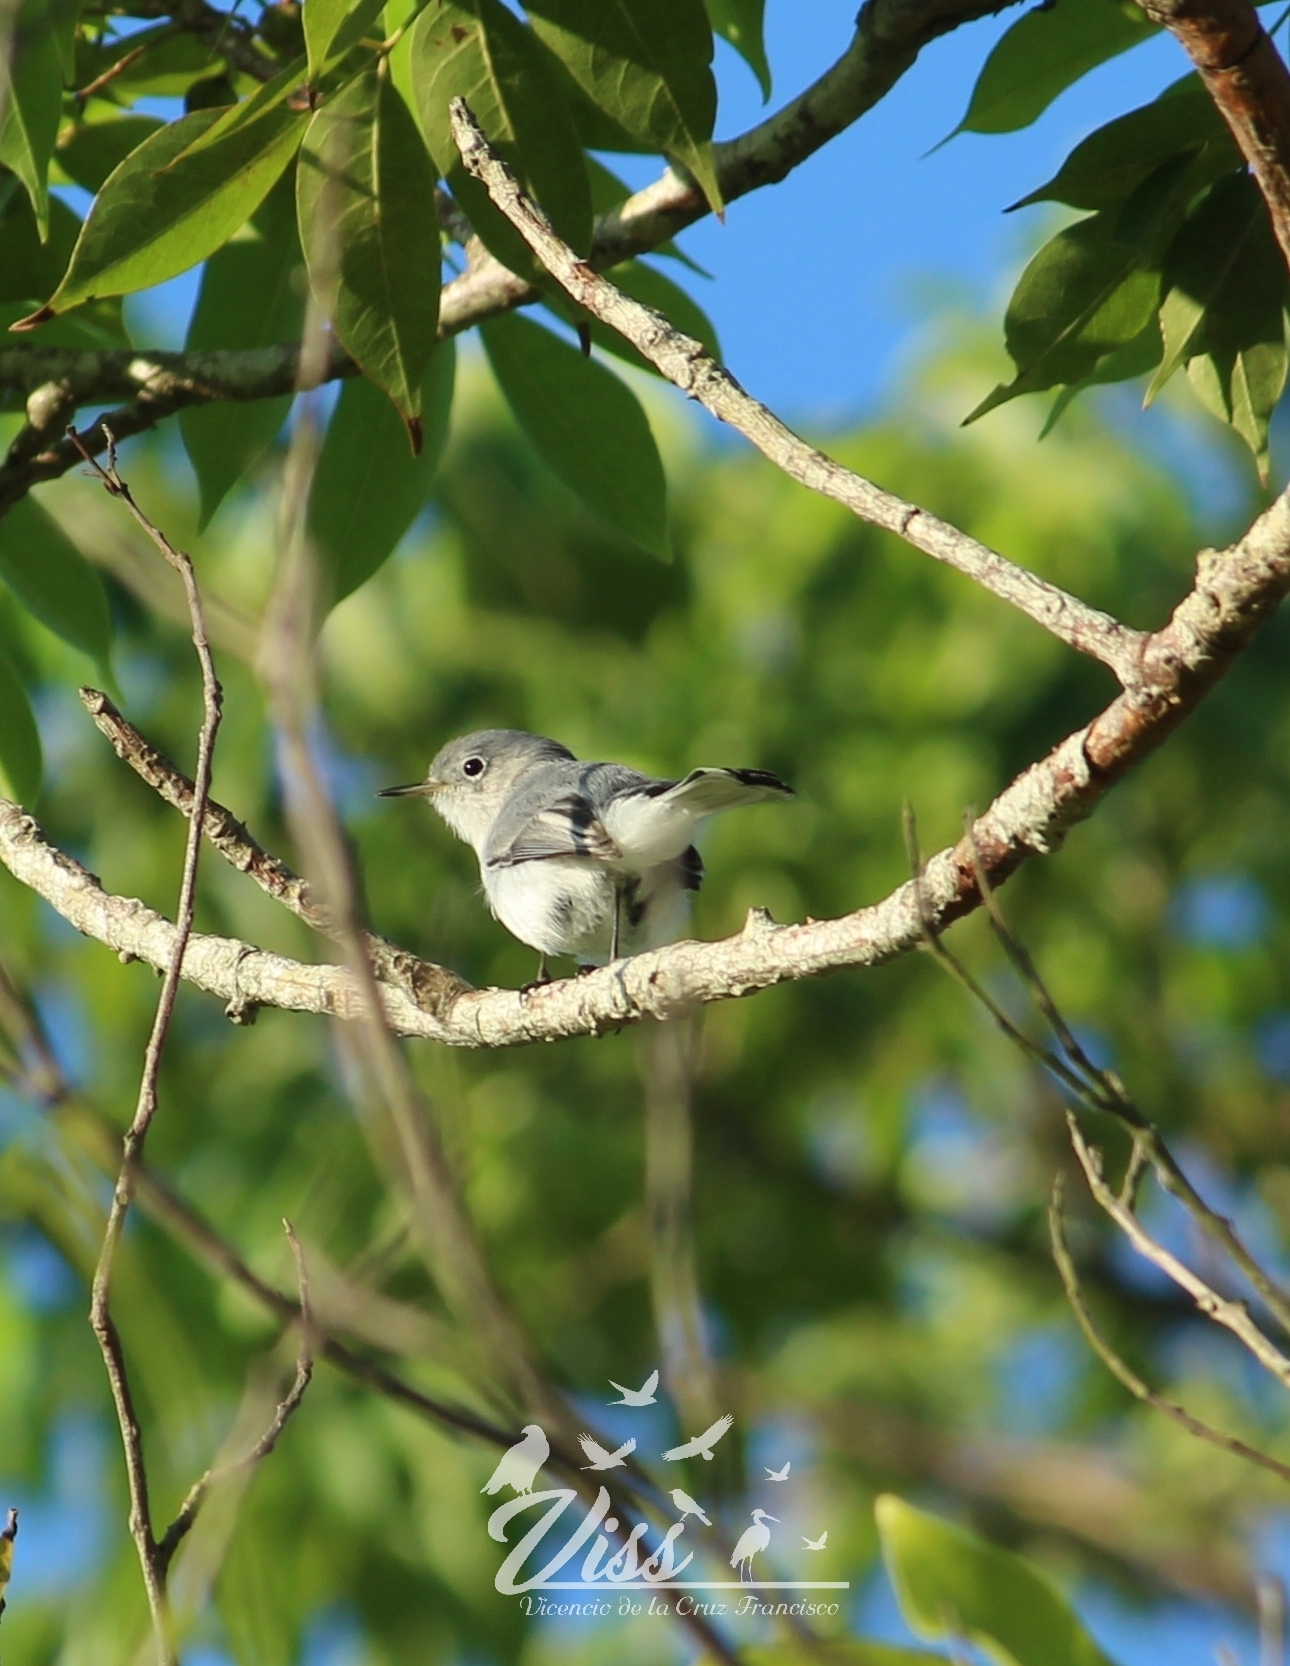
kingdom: Animalia
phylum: Chordata
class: Aves
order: Passeriformes
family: Polioptilidae
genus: Polioptila
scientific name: Polioptila caerulea
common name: Blue-gray gnatcatcher
